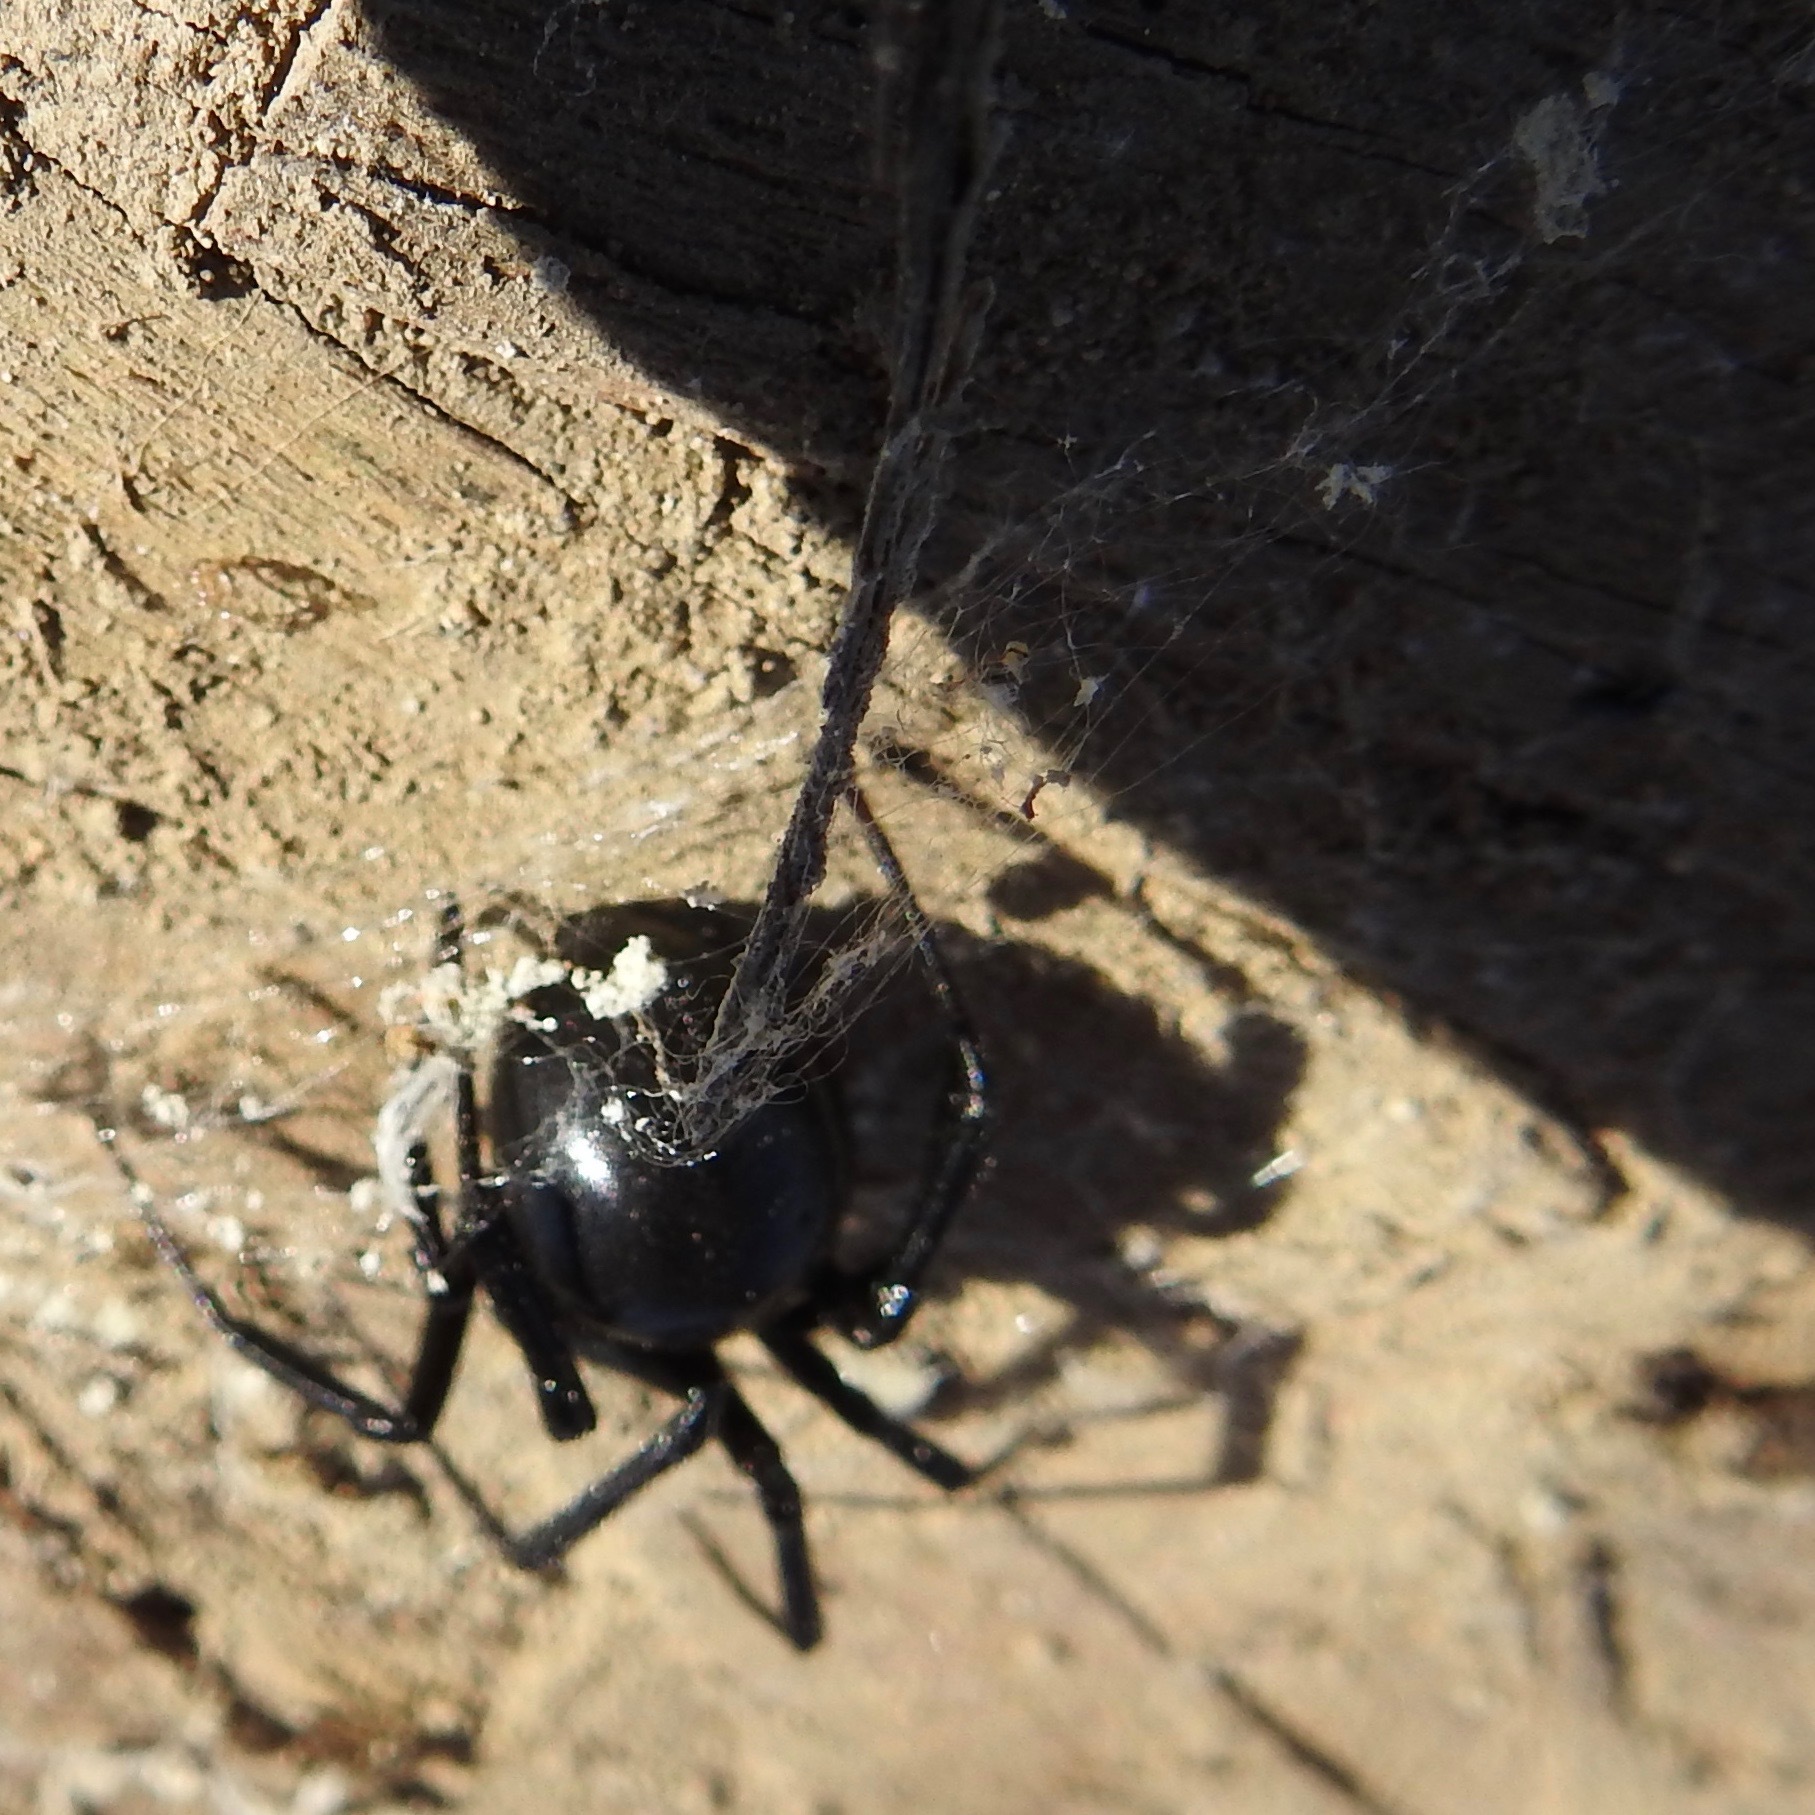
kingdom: Animalia
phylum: Arthropoda
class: Arachnida
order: Araneae
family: Theridiidae
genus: Latrodectus
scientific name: Latrodectus hesperus
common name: Western black widow
